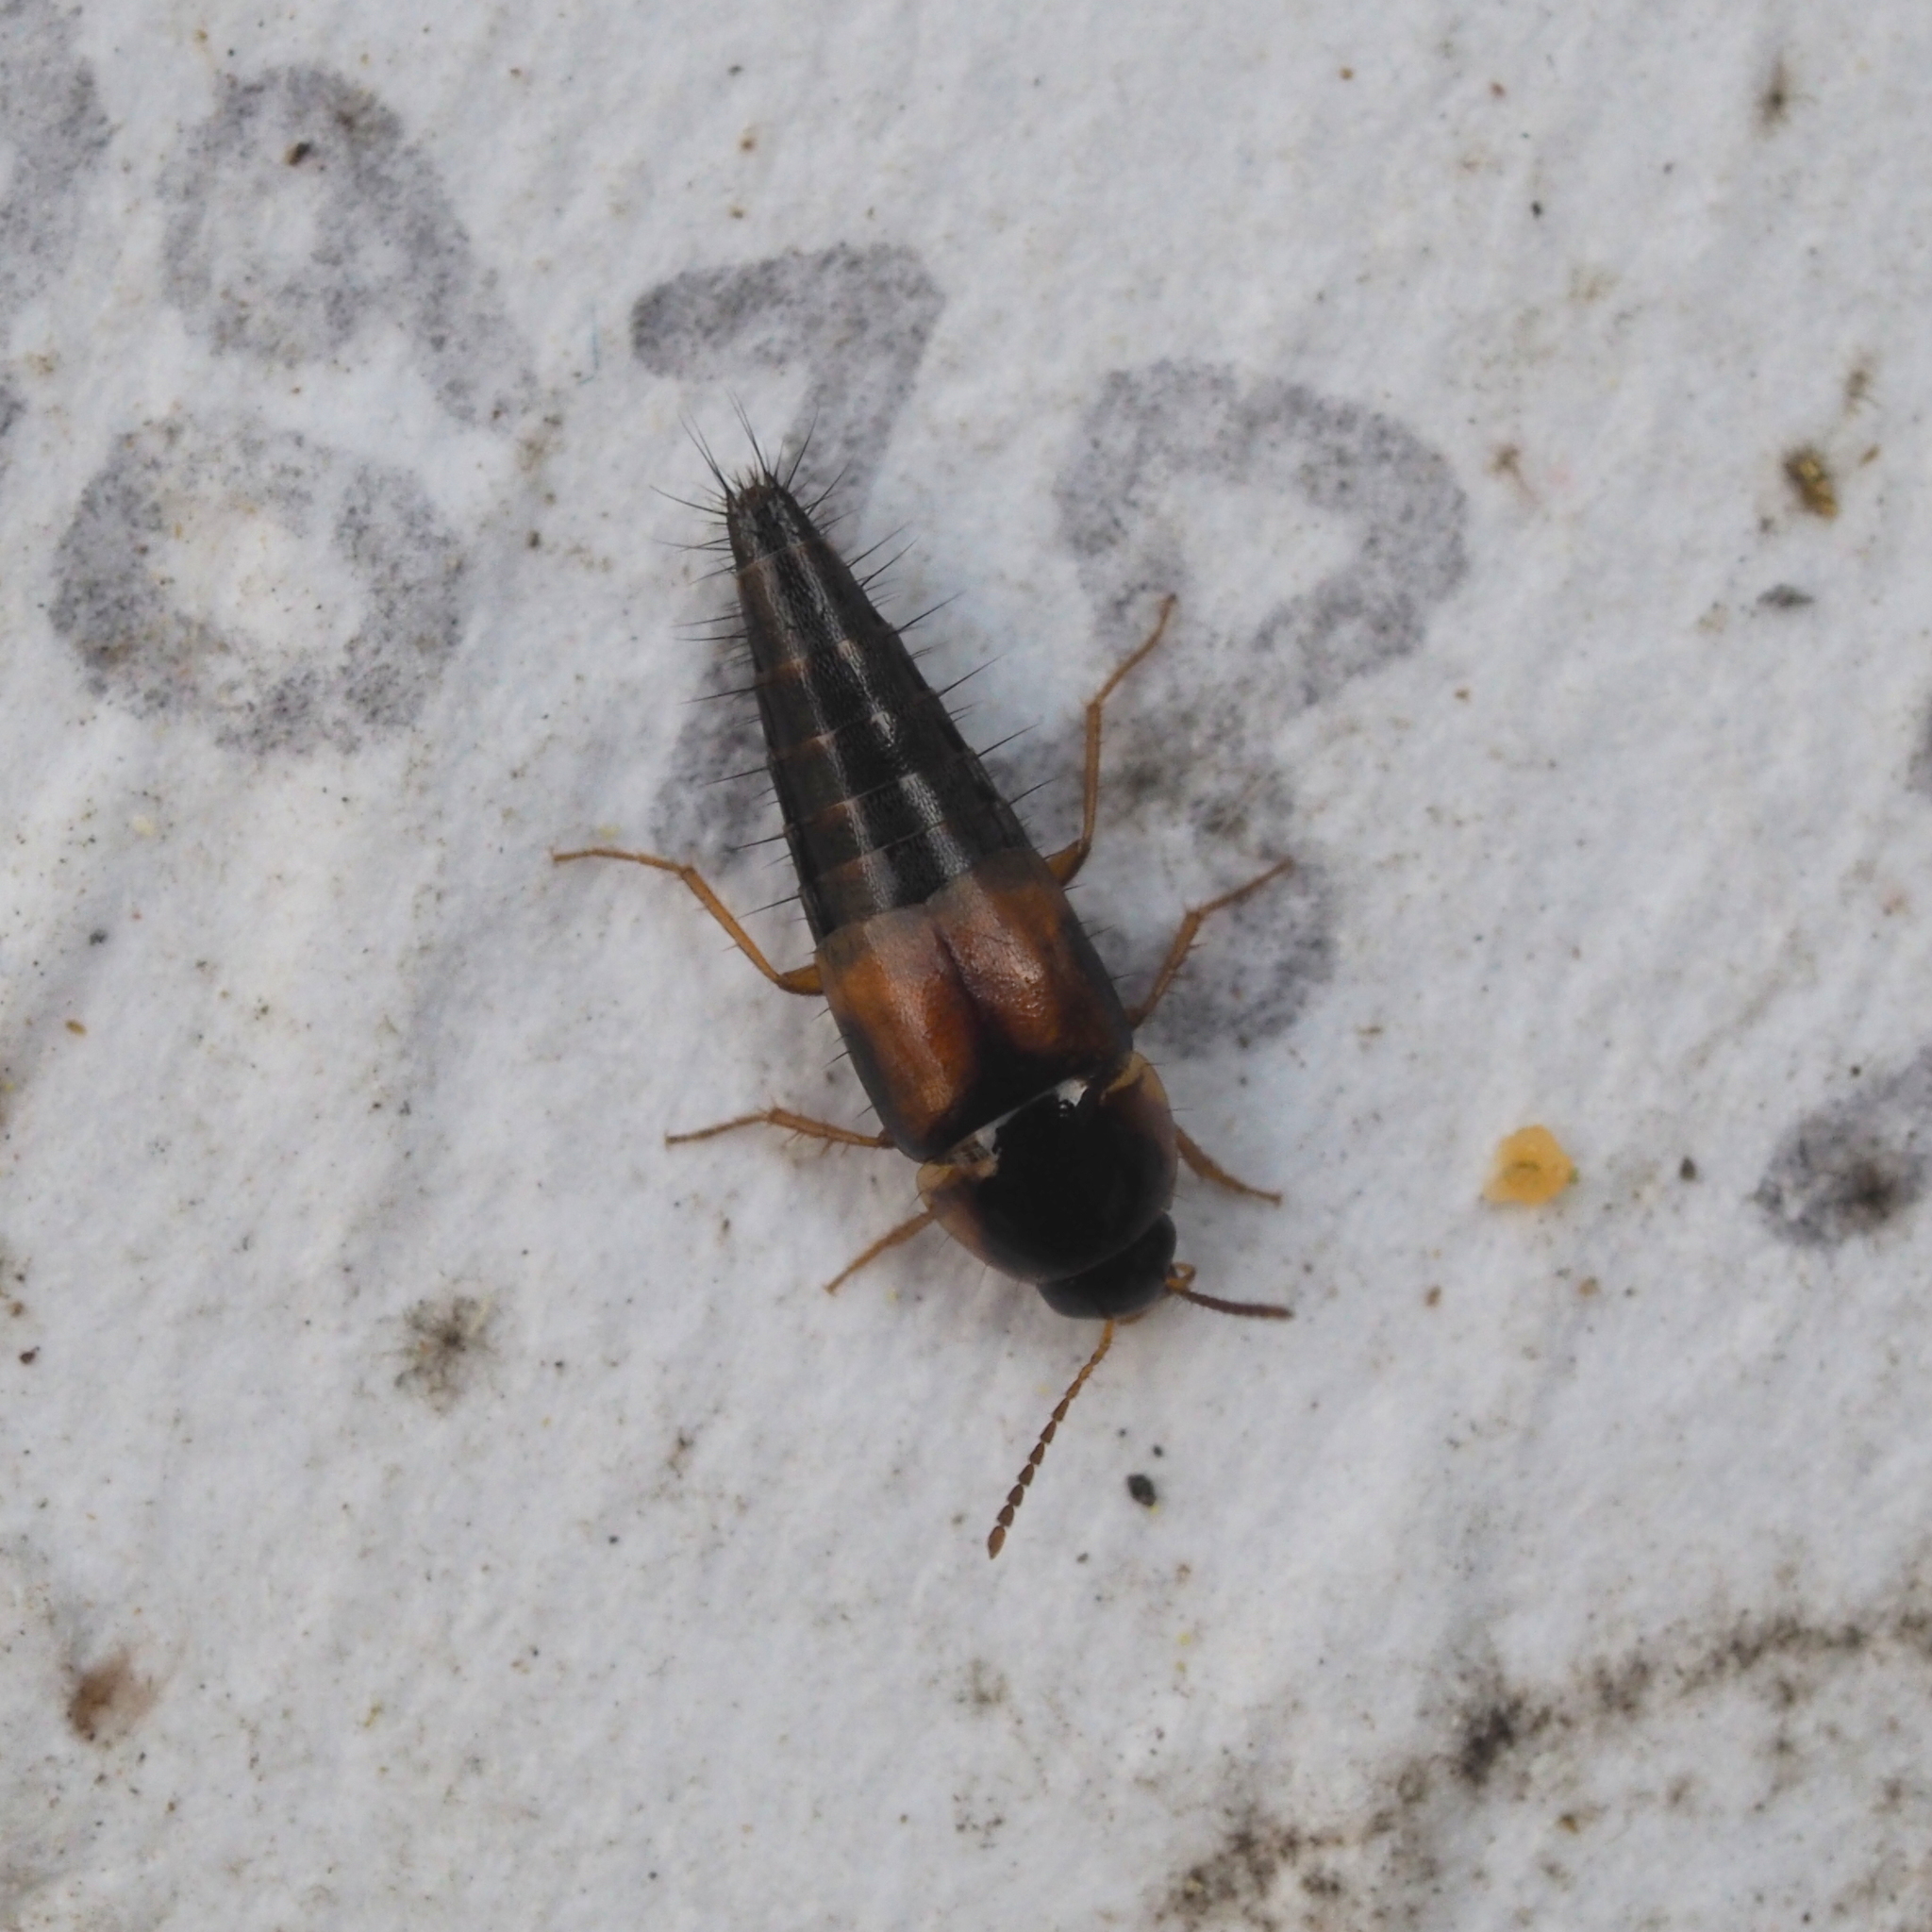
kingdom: Animalia
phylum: Arthropoda
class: Insecta
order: Coleoptera
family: Staphylinidae
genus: Tachyporus
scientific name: Tachyporus hypnorum
